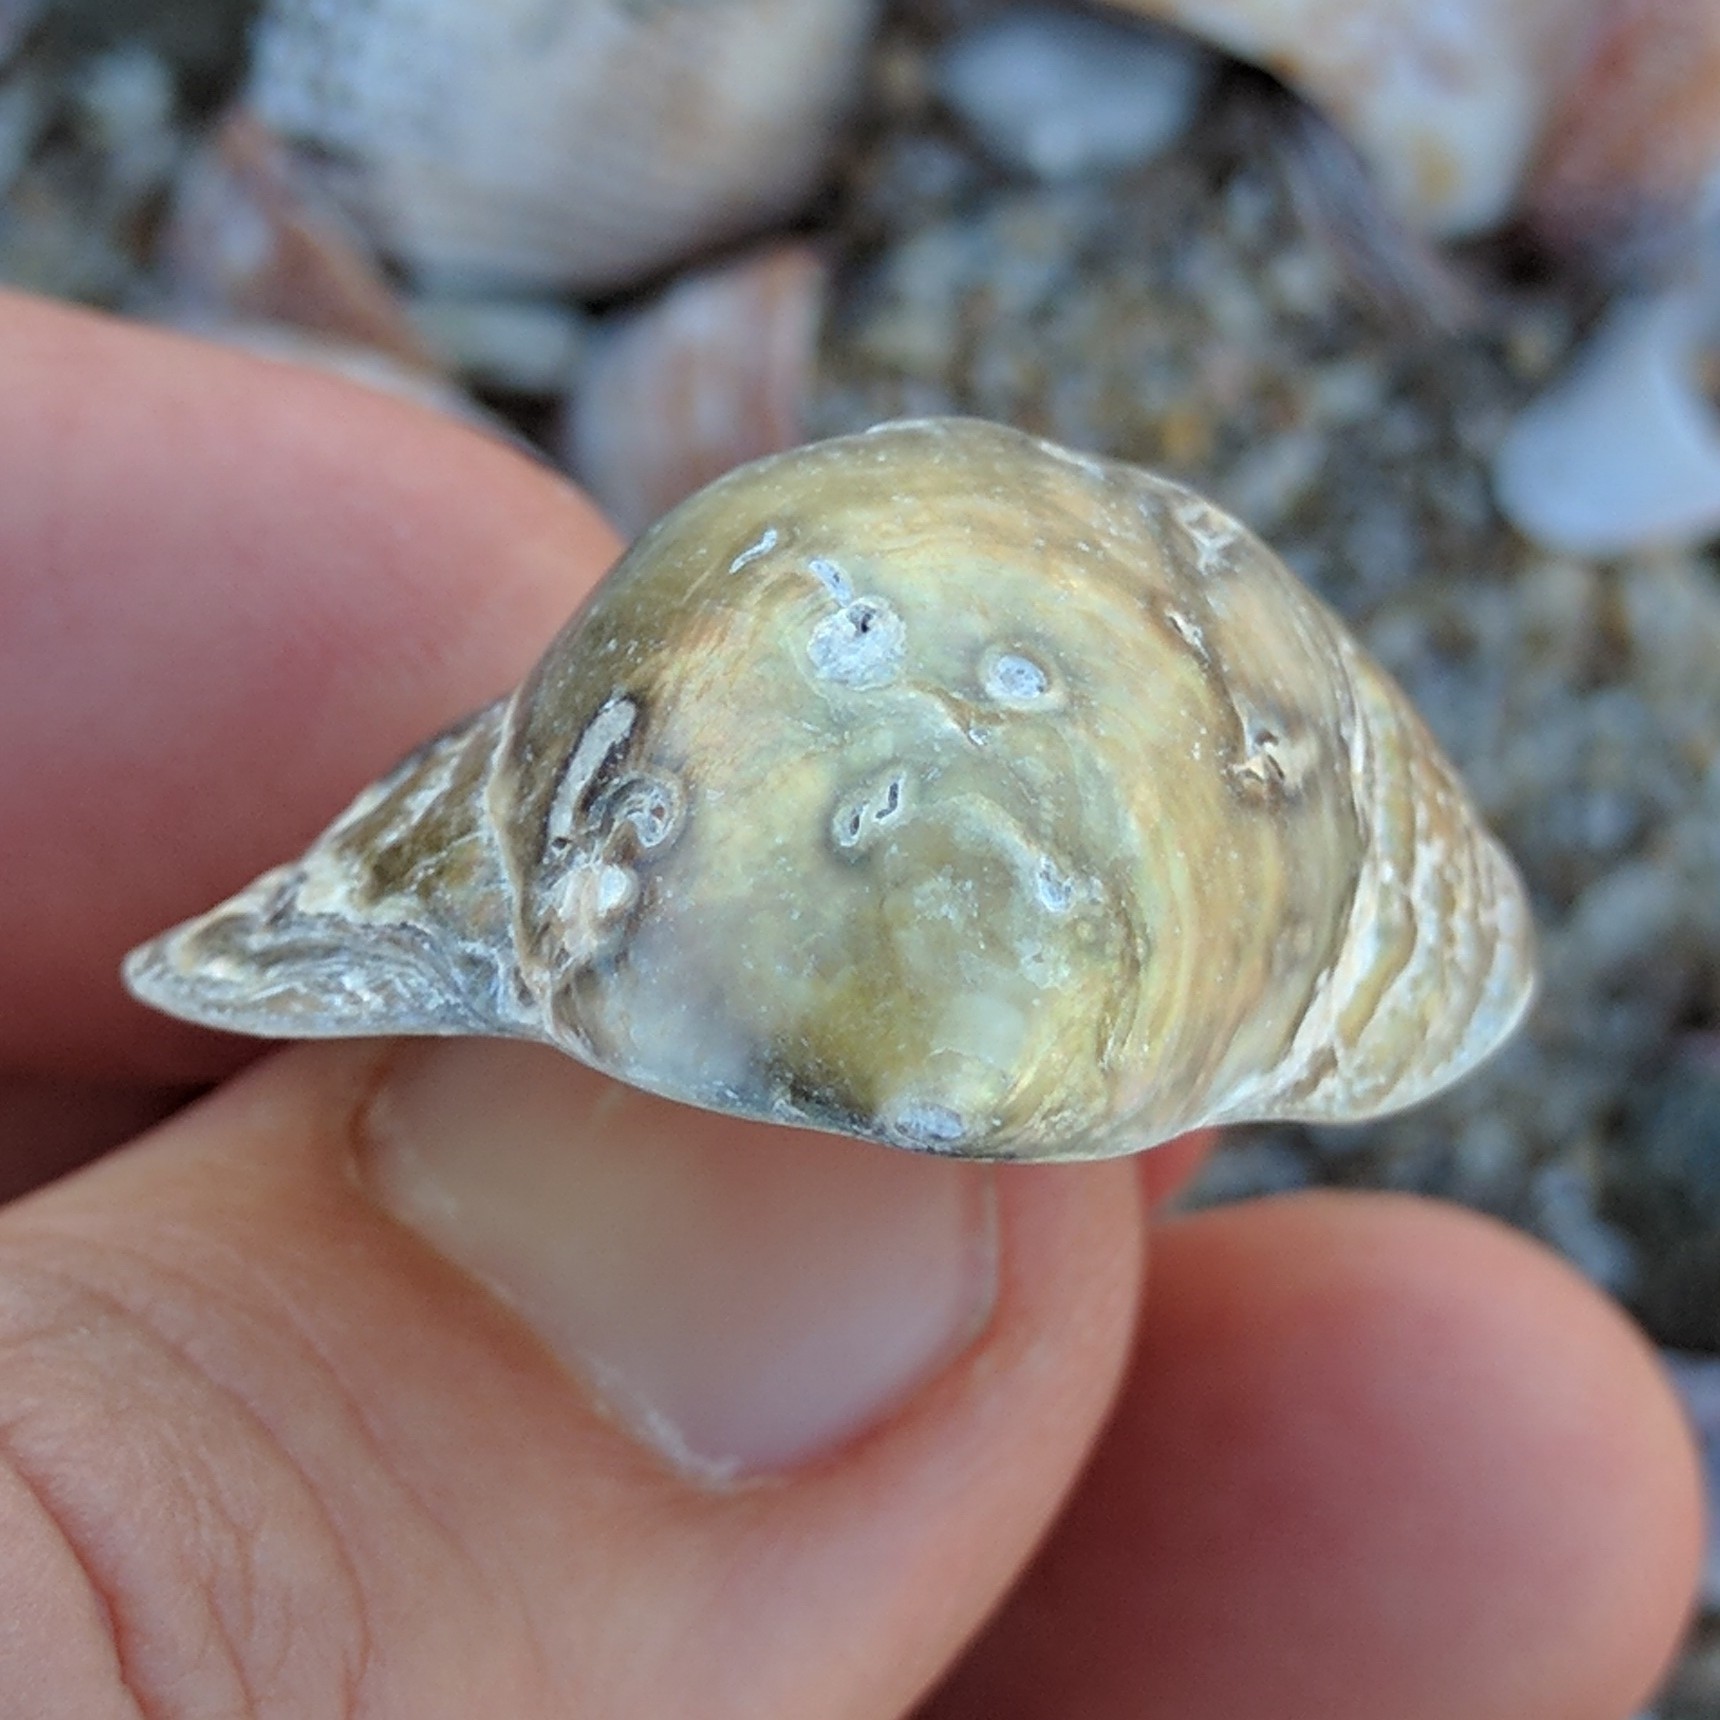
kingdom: Animalia
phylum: Mollusca
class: Bivalvia
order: Pectinida
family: Anomiidae
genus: Anomia
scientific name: Anomia simplex
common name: Common jingle shell
